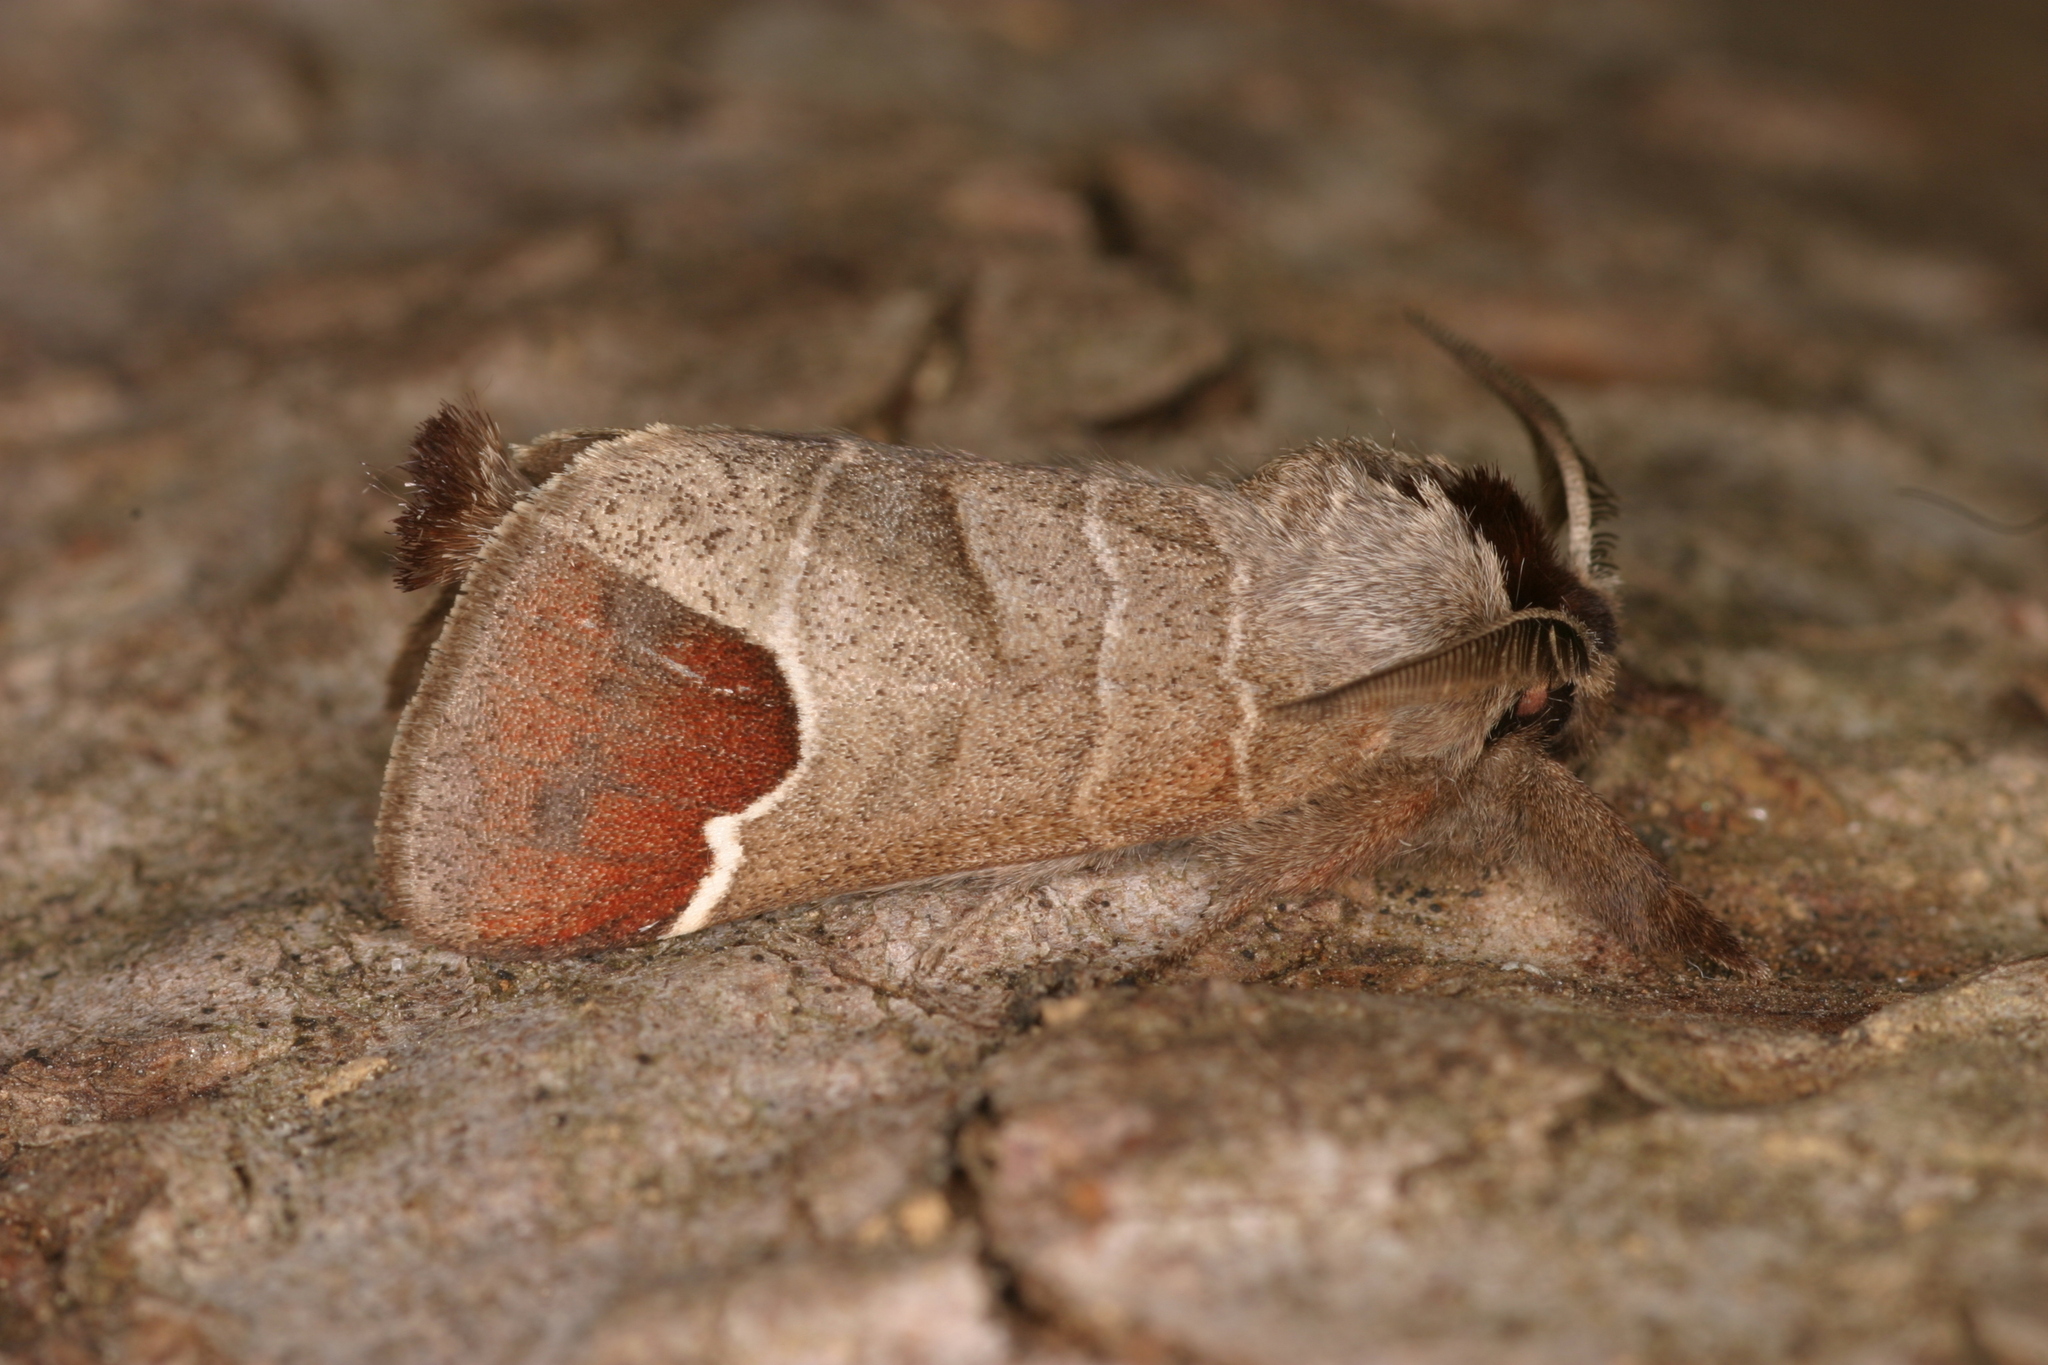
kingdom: Animalia
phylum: Arthropoda
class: Insecta
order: Lepidoptera
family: Notodontidae
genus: Clostera
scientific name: Clostera curtula
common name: Chocolate-tip
